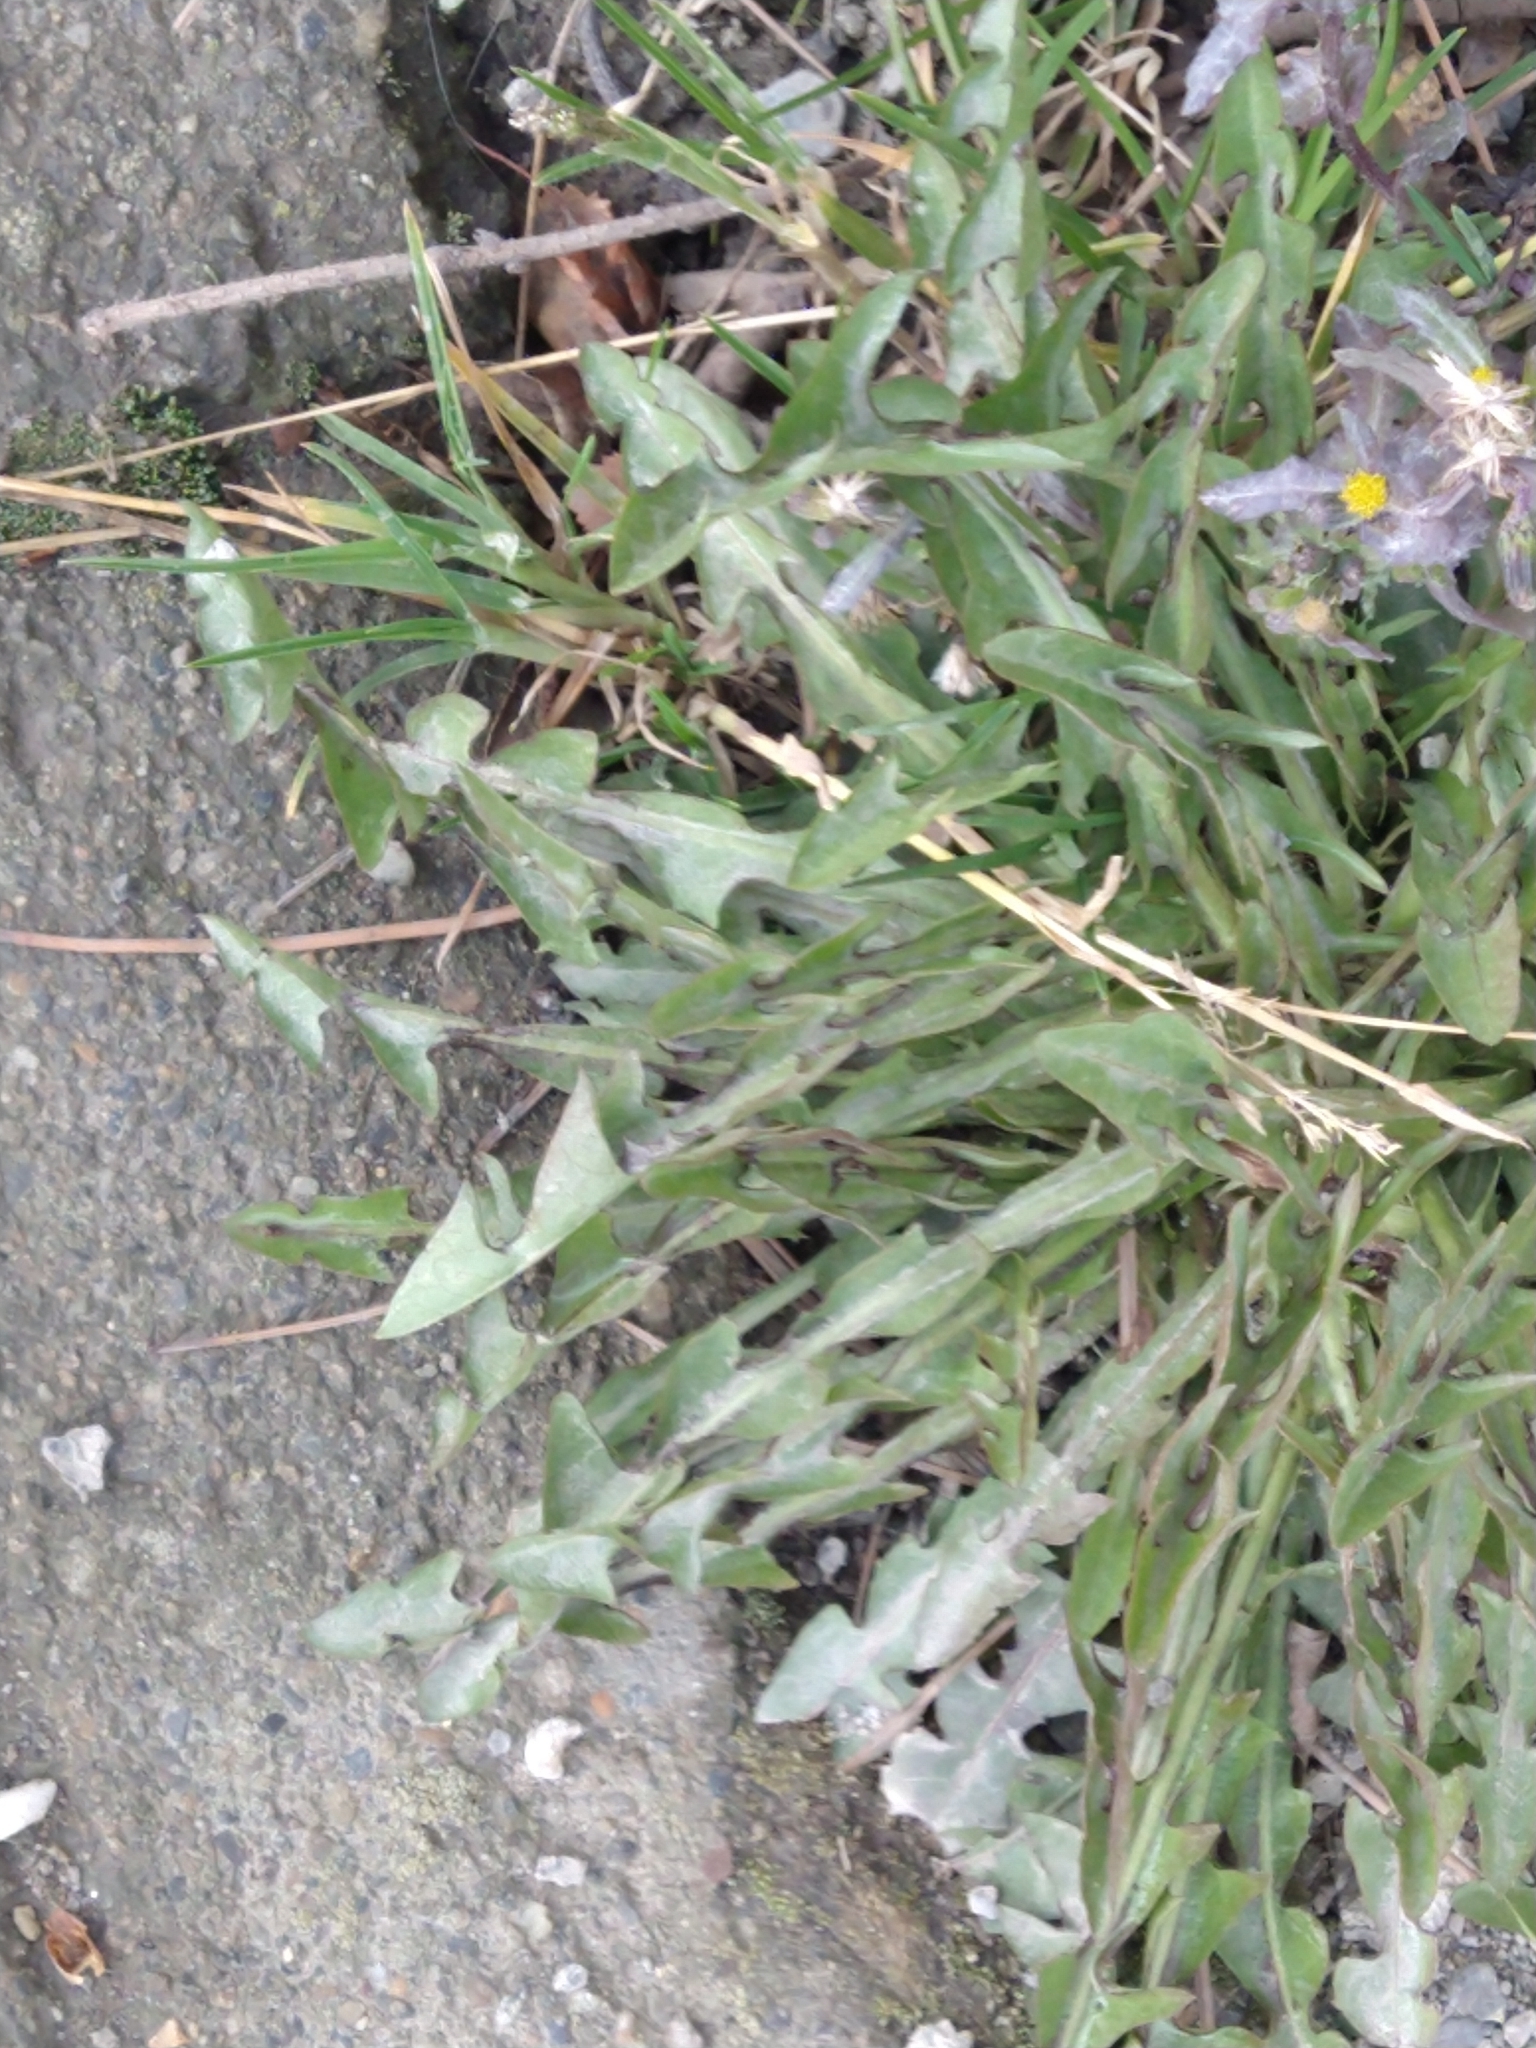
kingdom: Plantae
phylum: Tracheophyta
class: Magnoliopsida
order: Asterales
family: Asteraceae
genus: Taraxacum
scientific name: Taraxacum officinale
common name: Common dandelion
